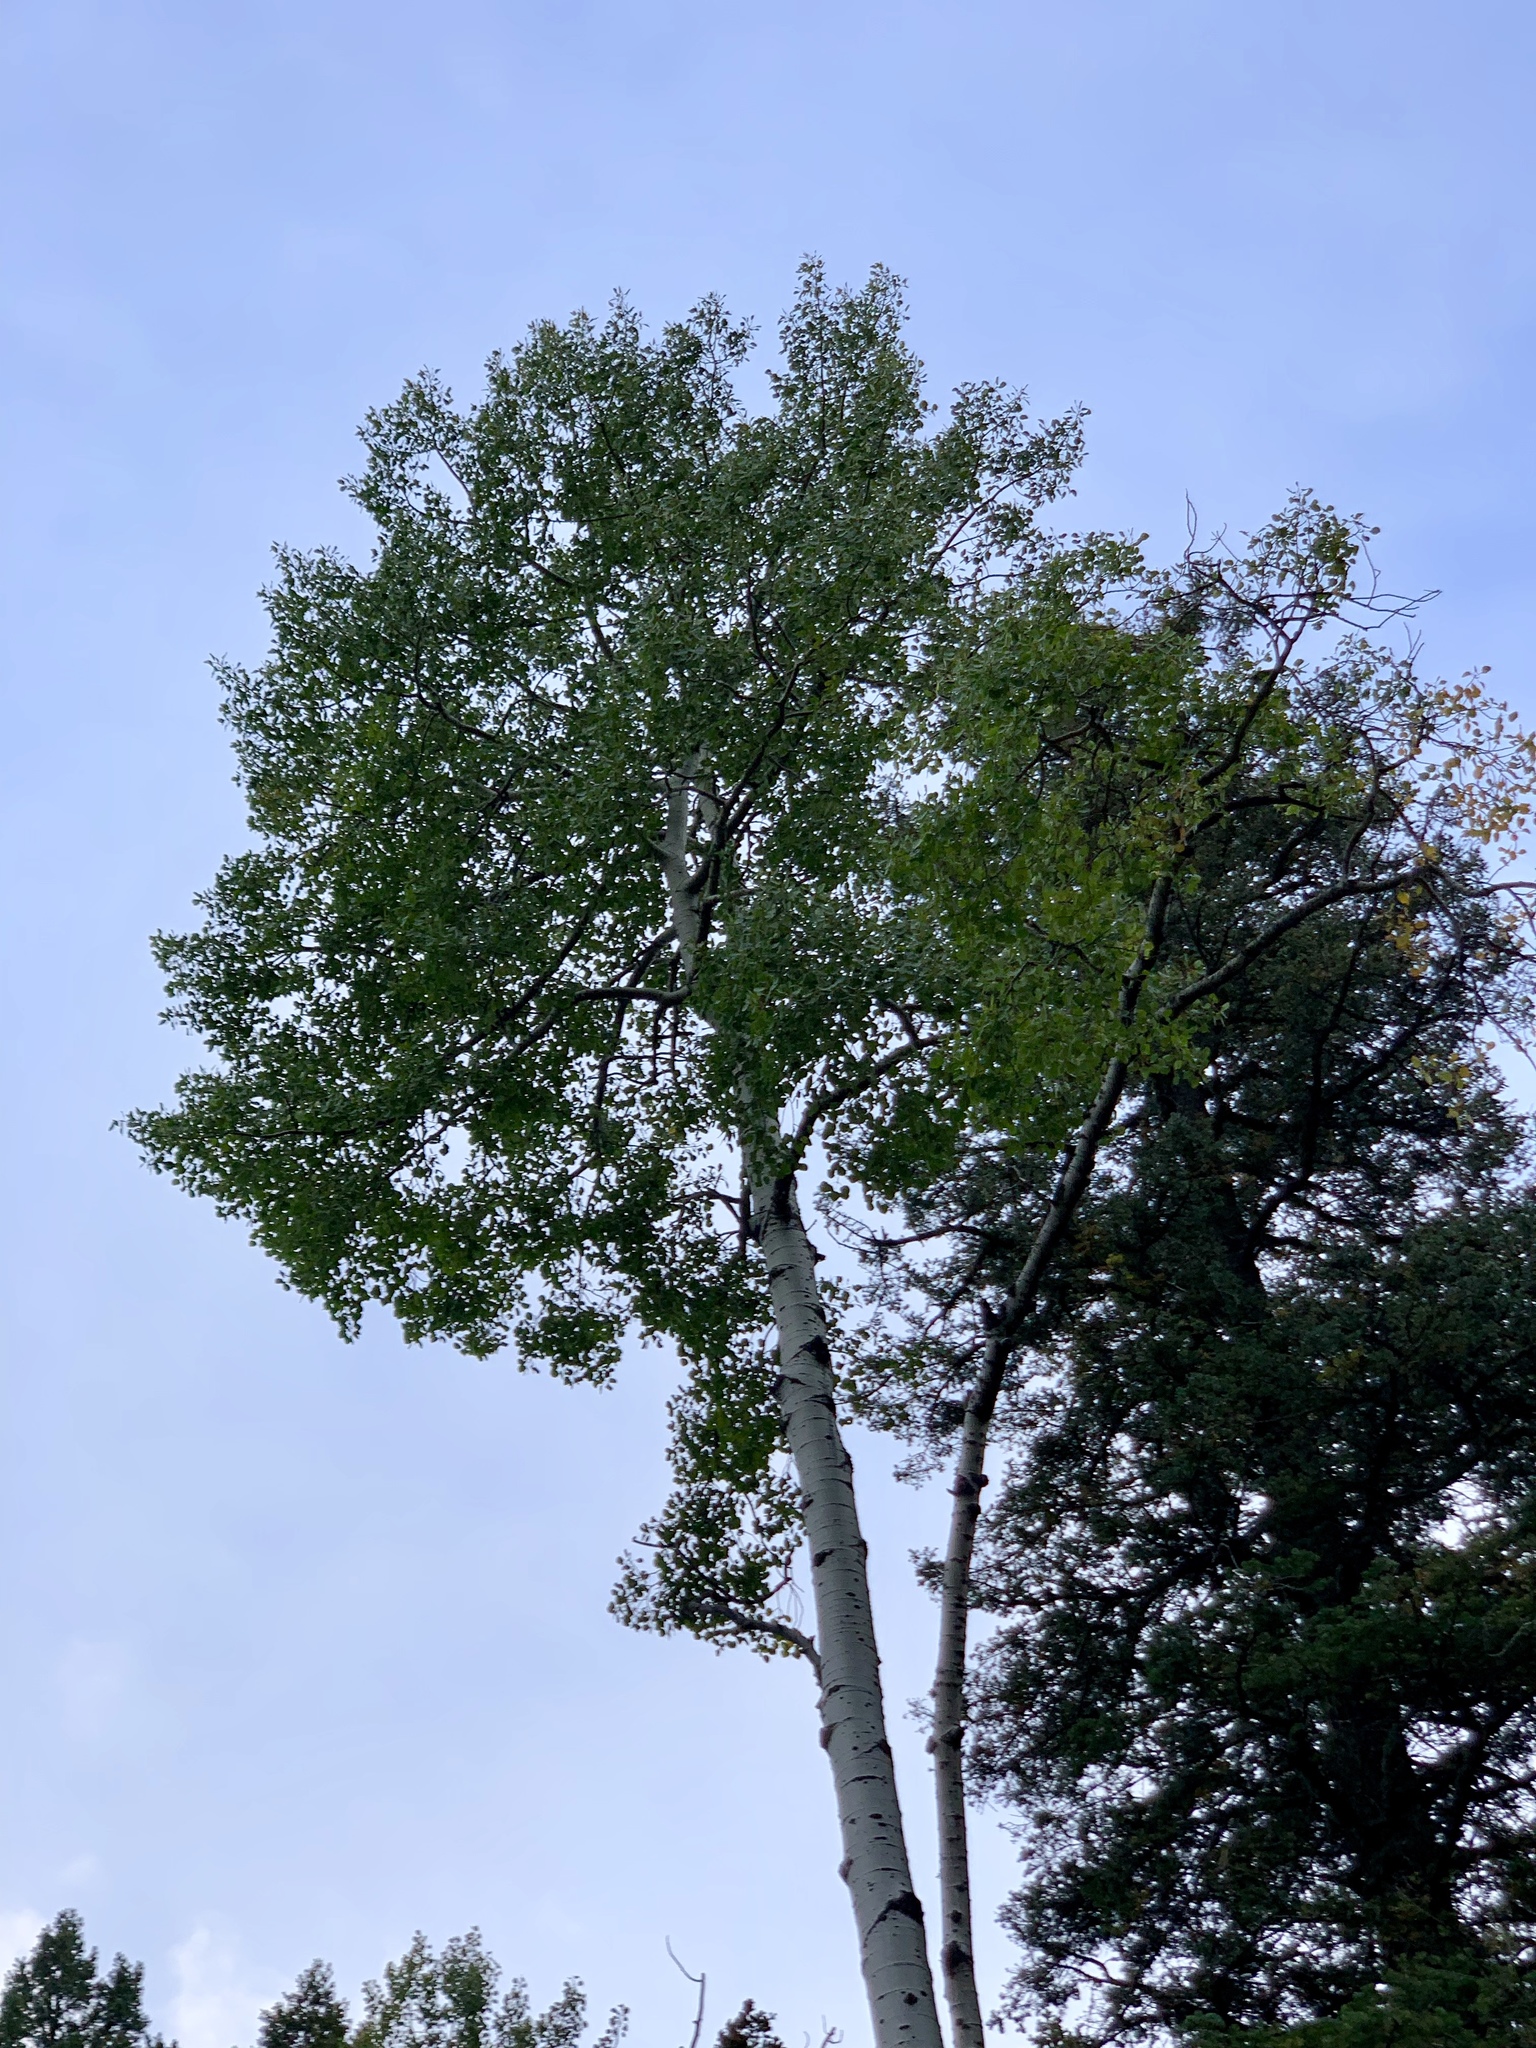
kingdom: Plantae
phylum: Tracheophyta
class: Magnoliopsida
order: Malpighiales
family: Salicaceae
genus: Populus
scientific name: Populus tremuloides
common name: Quaking aspen
